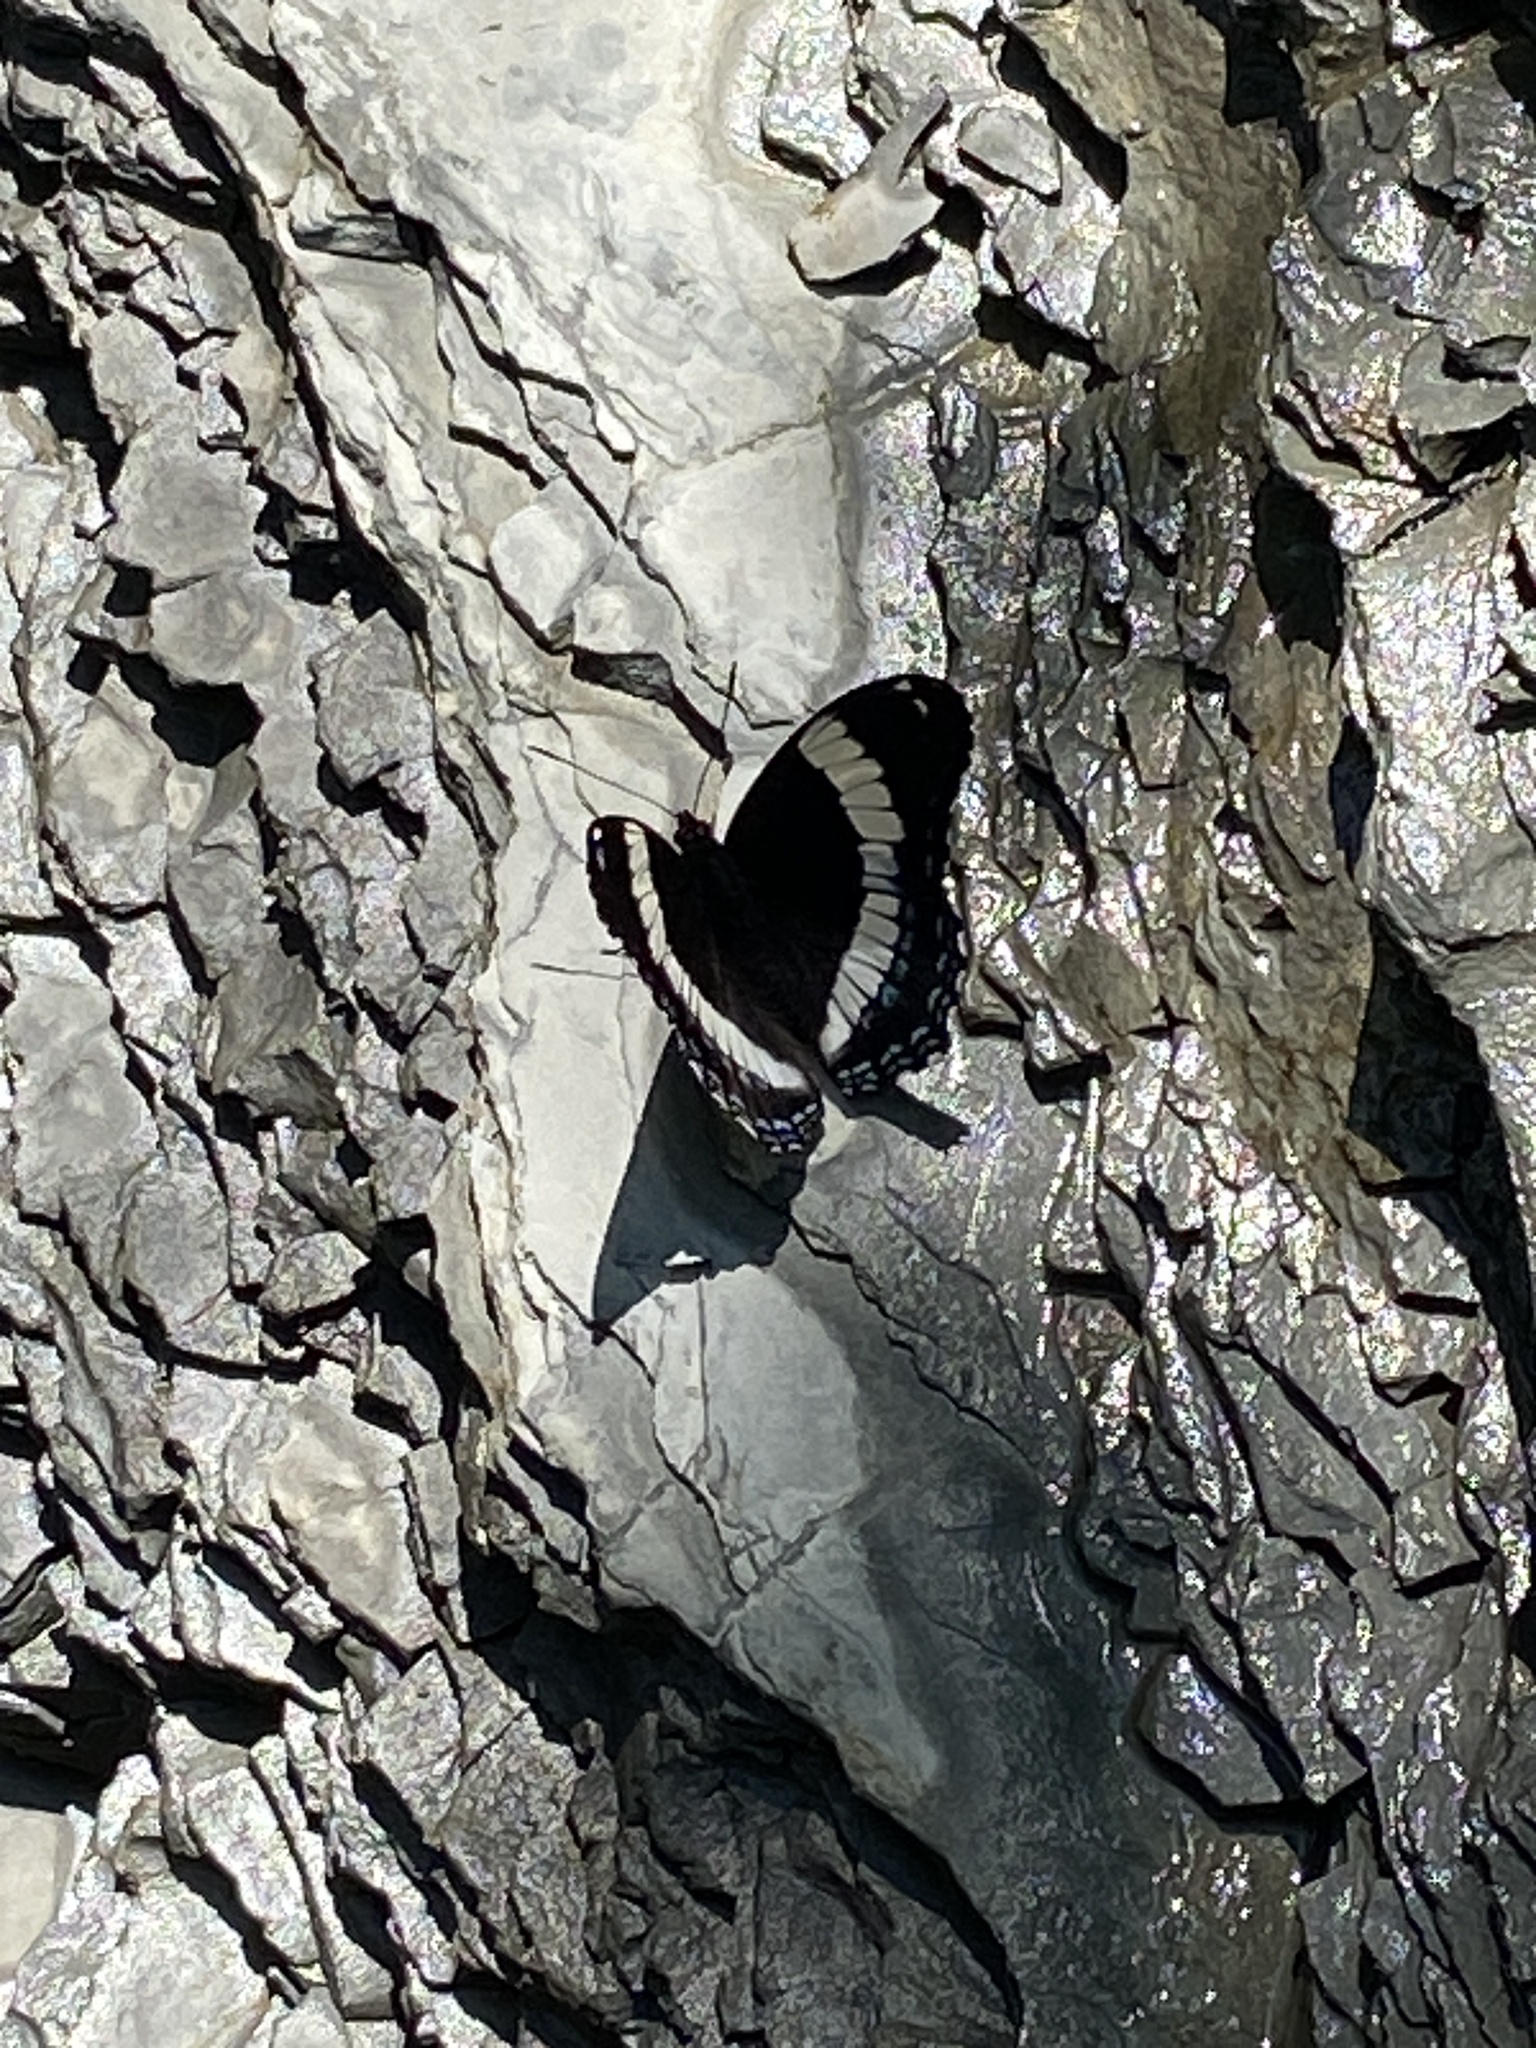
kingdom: Animalia
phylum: Arthropoda
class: Insecta
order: Lepidoptera
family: Nymphalidae
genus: Limenitis
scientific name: Limenitis arthemis
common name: Red-spotted admiral
